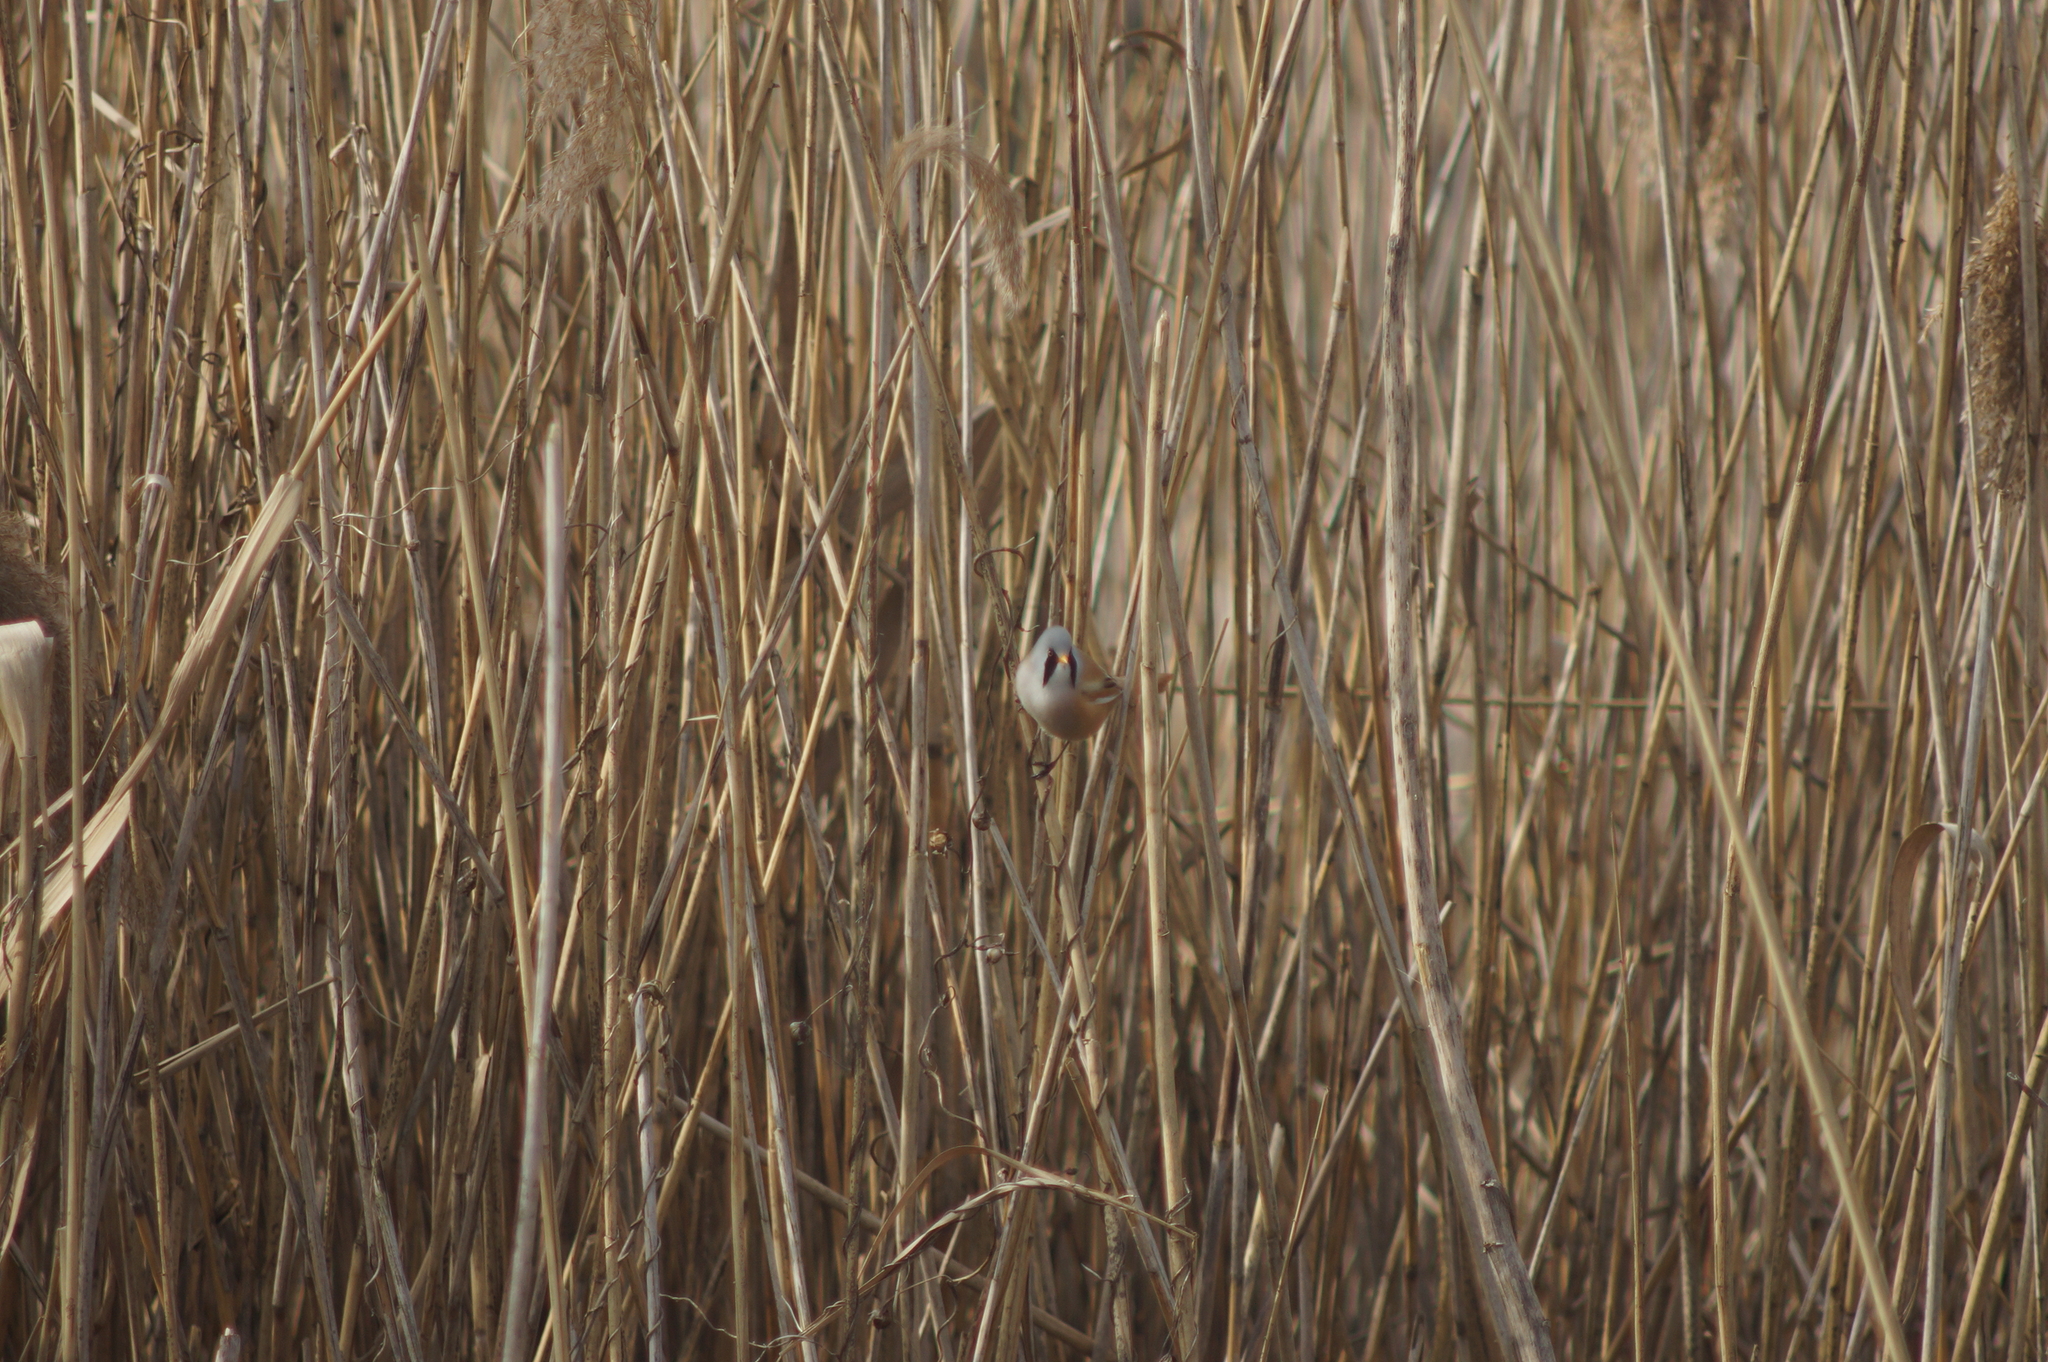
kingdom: Animalia
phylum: Chordata
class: Aves
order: Passeriformes
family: Panuridae
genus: Panurus
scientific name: Panurus biarmicus
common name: Bearded reedling
